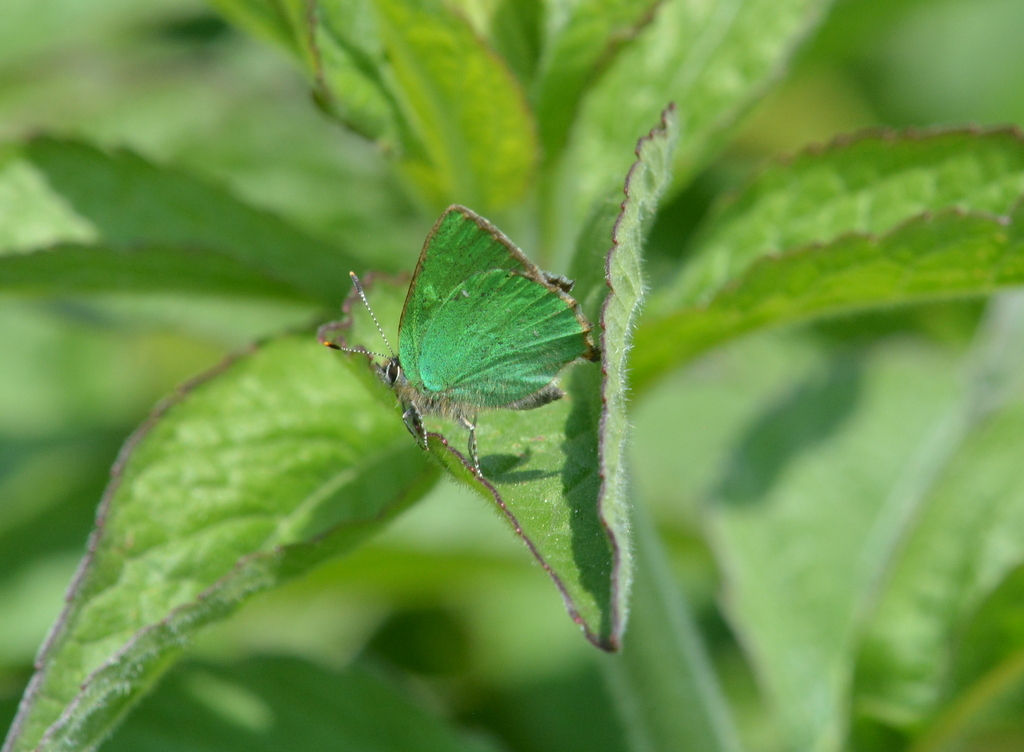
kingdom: Animalia
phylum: Arthropoda
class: Insecta
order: Lepidoptera
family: Lycaenidae
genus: Callophrys
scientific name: Callophrys rubi
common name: Green hairstreak
